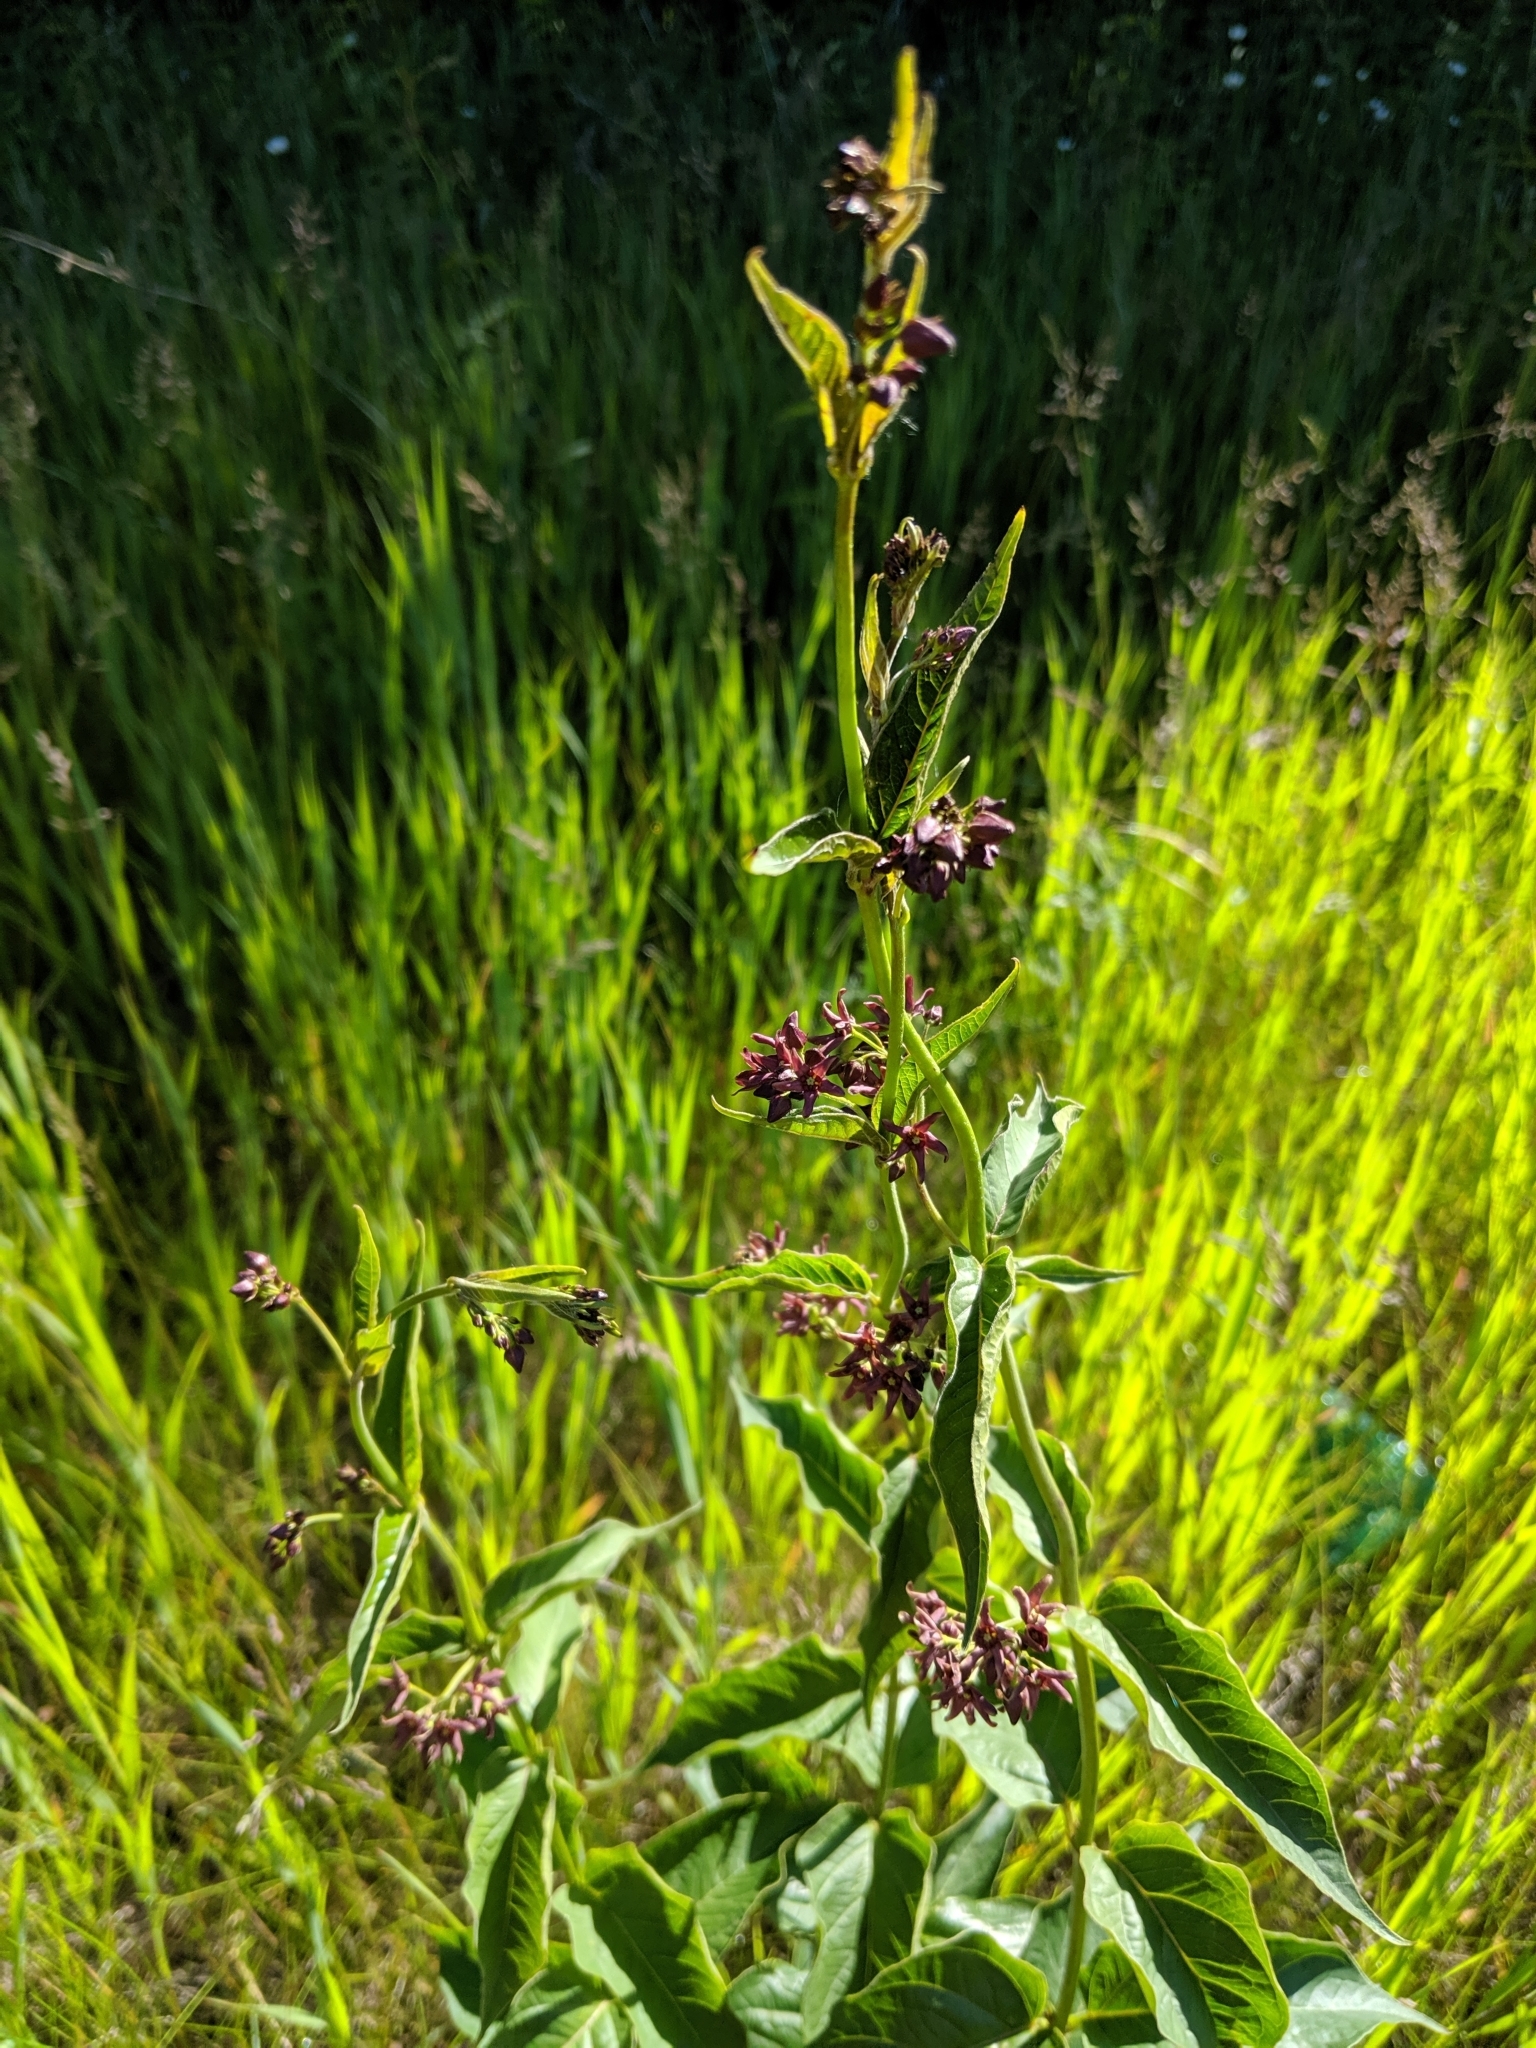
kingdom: Plantae
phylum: Tracheophyta
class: Magnoliopsida
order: Gentianales
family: Apocynaceae
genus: Vincetoxicum
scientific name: Vincetoxicum rossicum
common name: Dog-strangling vine
